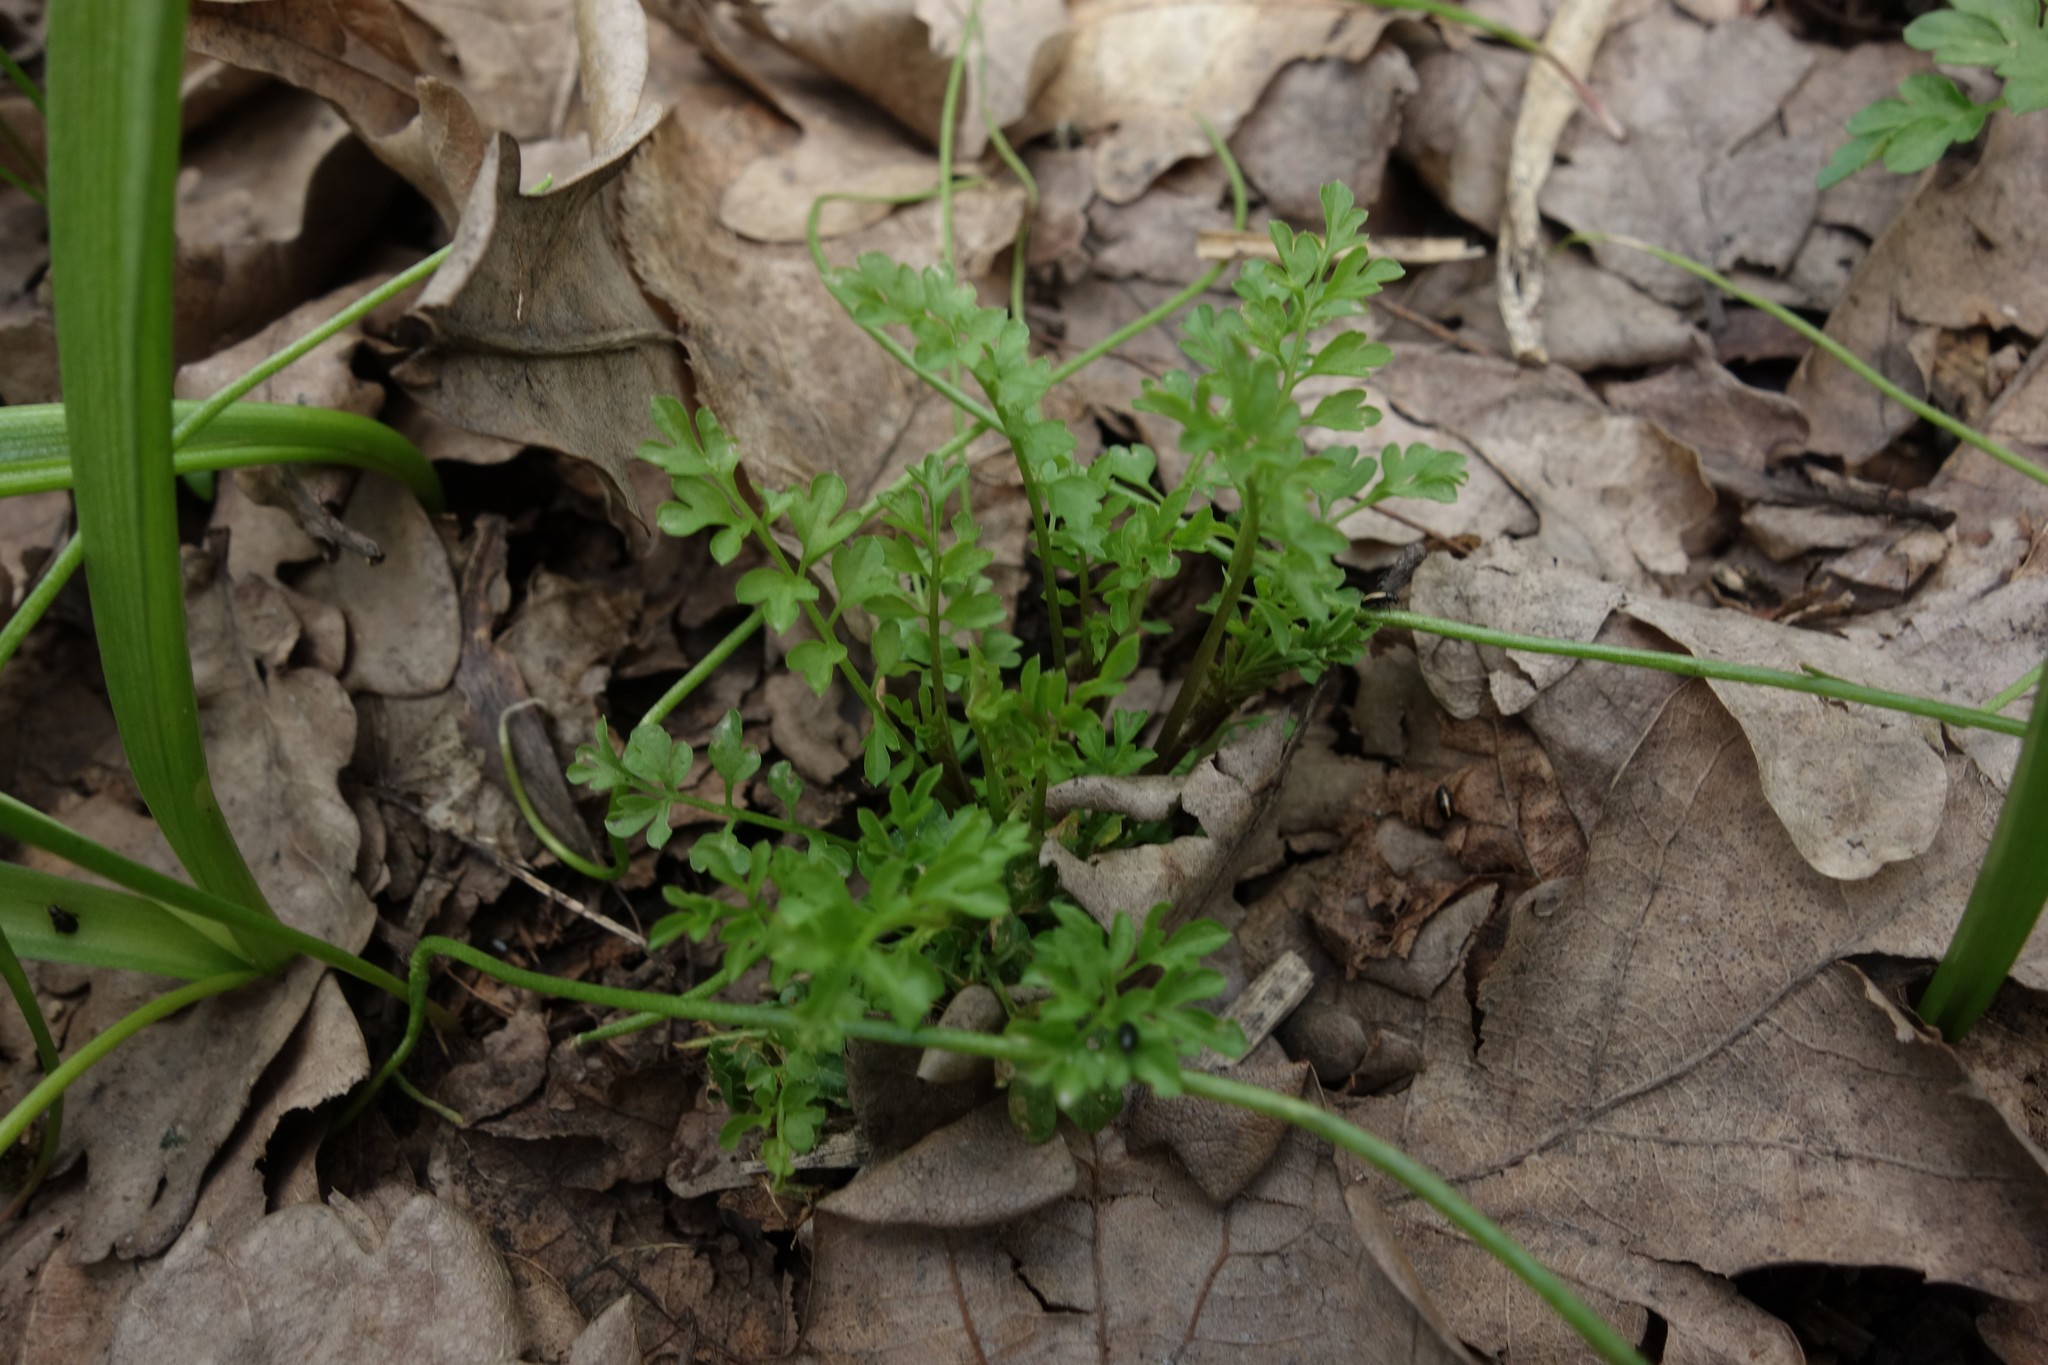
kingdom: Plantae
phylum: Tracheophyta
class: Magnoliopsida
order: Brassicales
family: Brassicaceae
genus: Cardamine
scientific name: Cardamine impatiens
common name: Narrow-leaved bitter-cress
